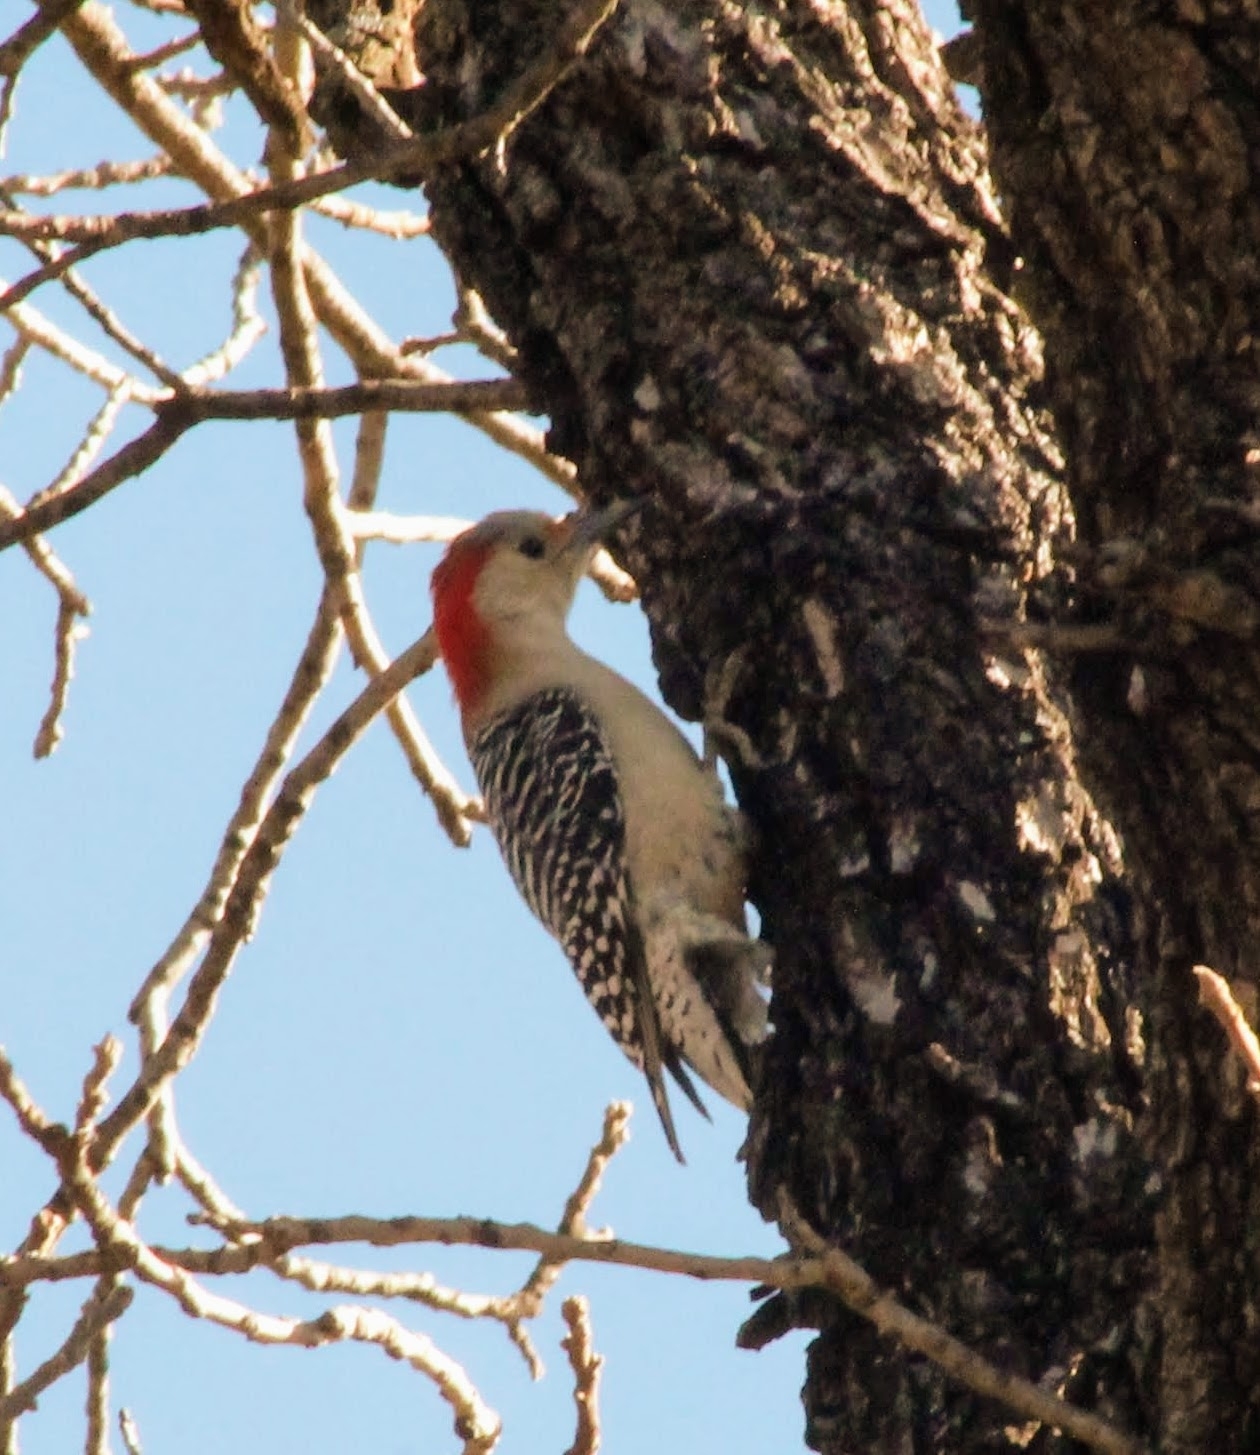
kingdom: Animalia
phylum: Chordata
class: Aves
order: Piciformes
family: Picidae
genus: Melanerpes
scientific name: Melanerpes carolinus
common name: Red-bellied woodpecker
